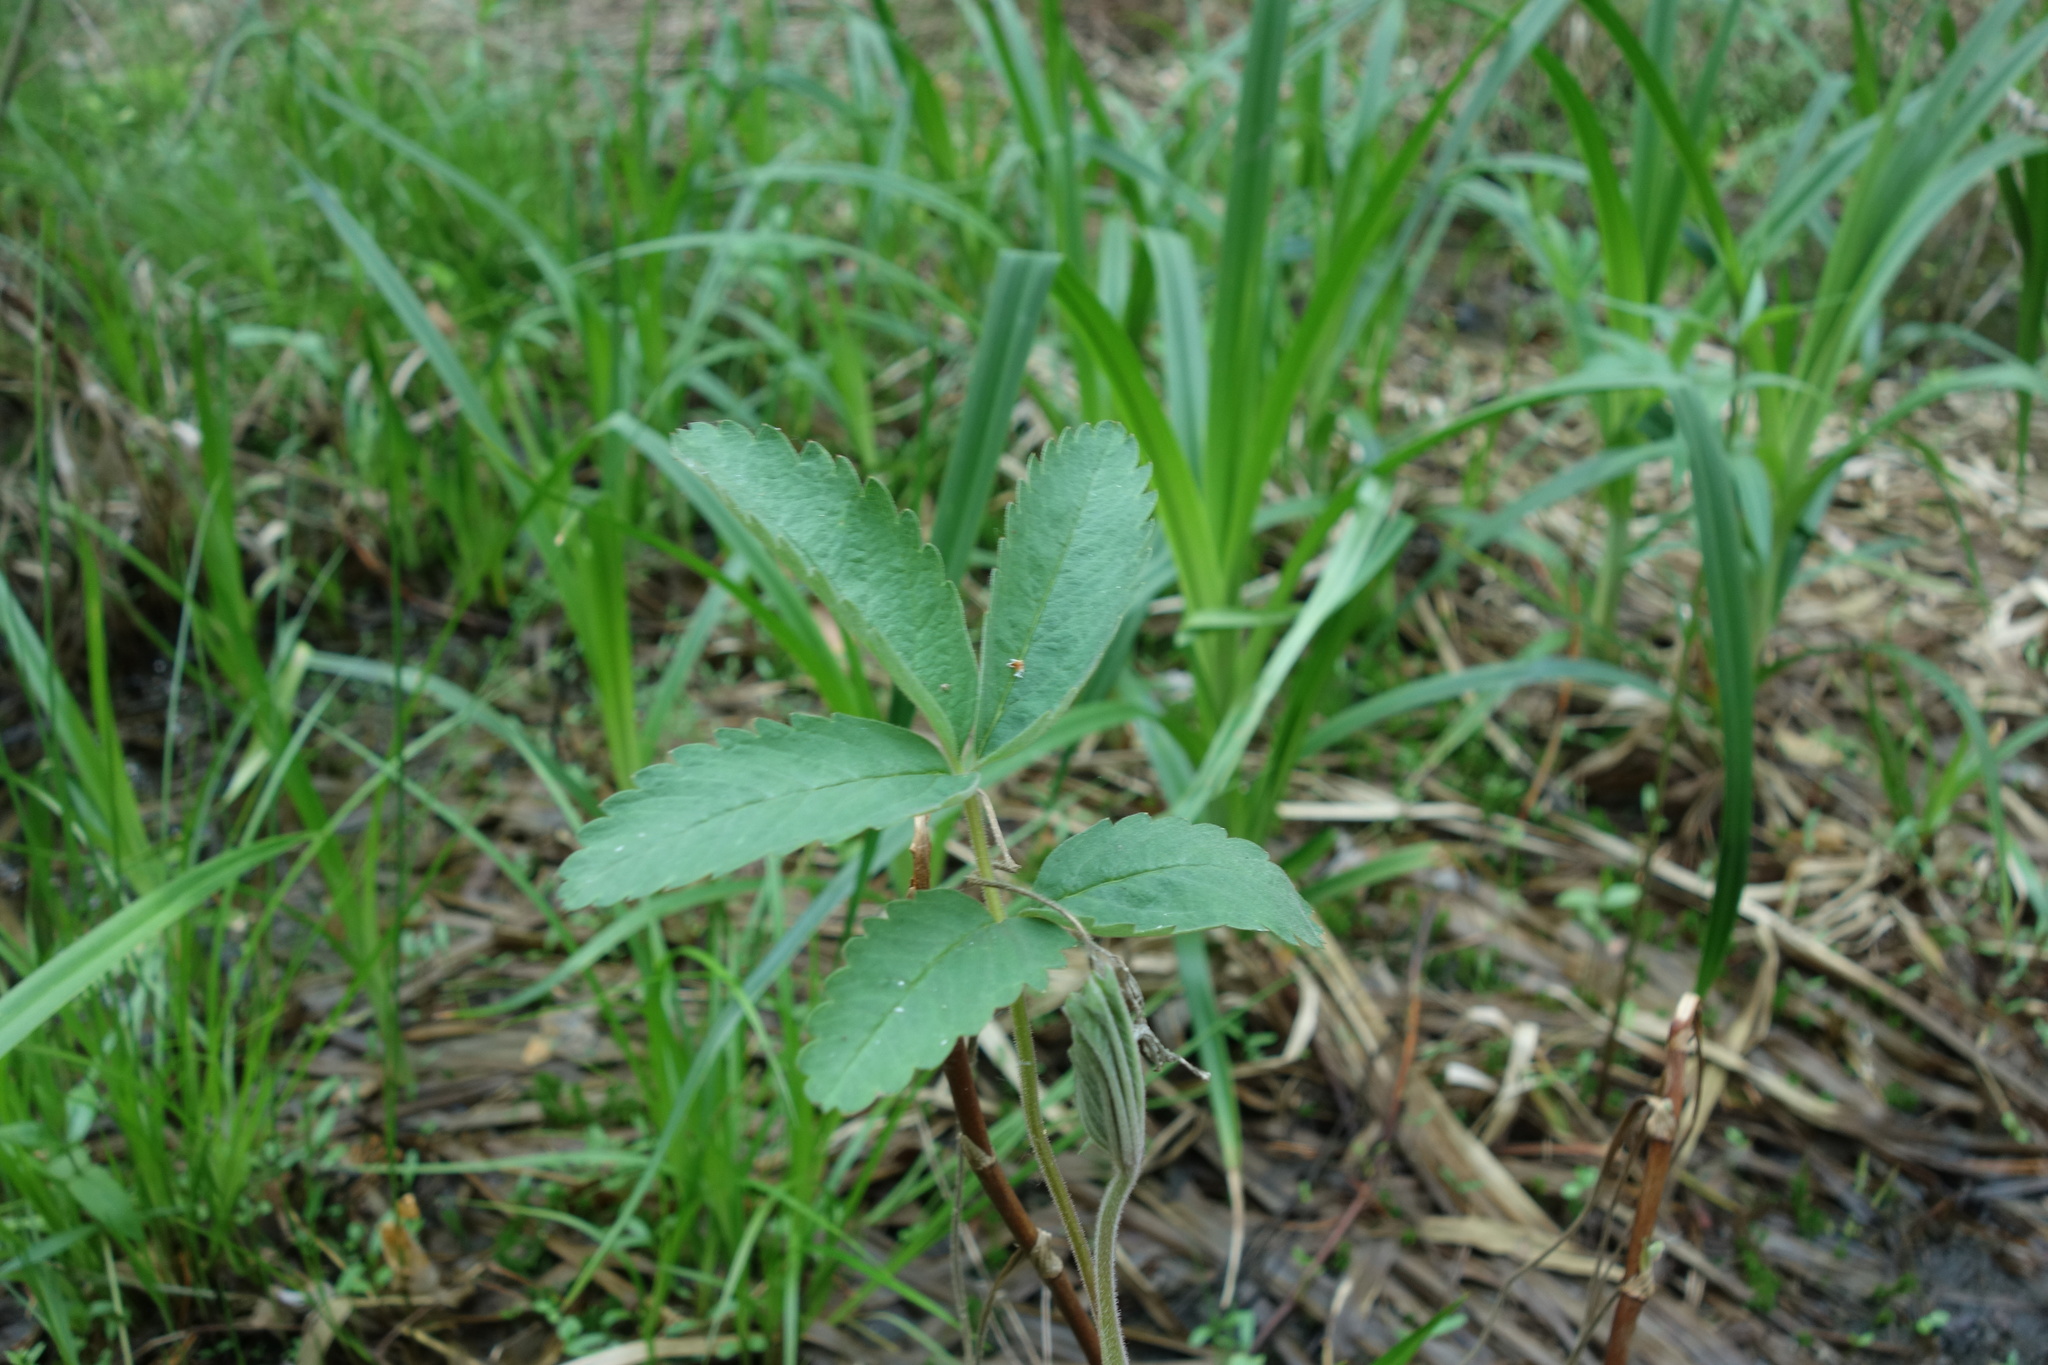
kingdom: Plantae
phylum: Tracheophyta
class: Magnoliopsida
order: Rosales
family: Rosaceae
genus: Comarum
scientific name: Comarum palustre
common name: Marsh cinquefoil
